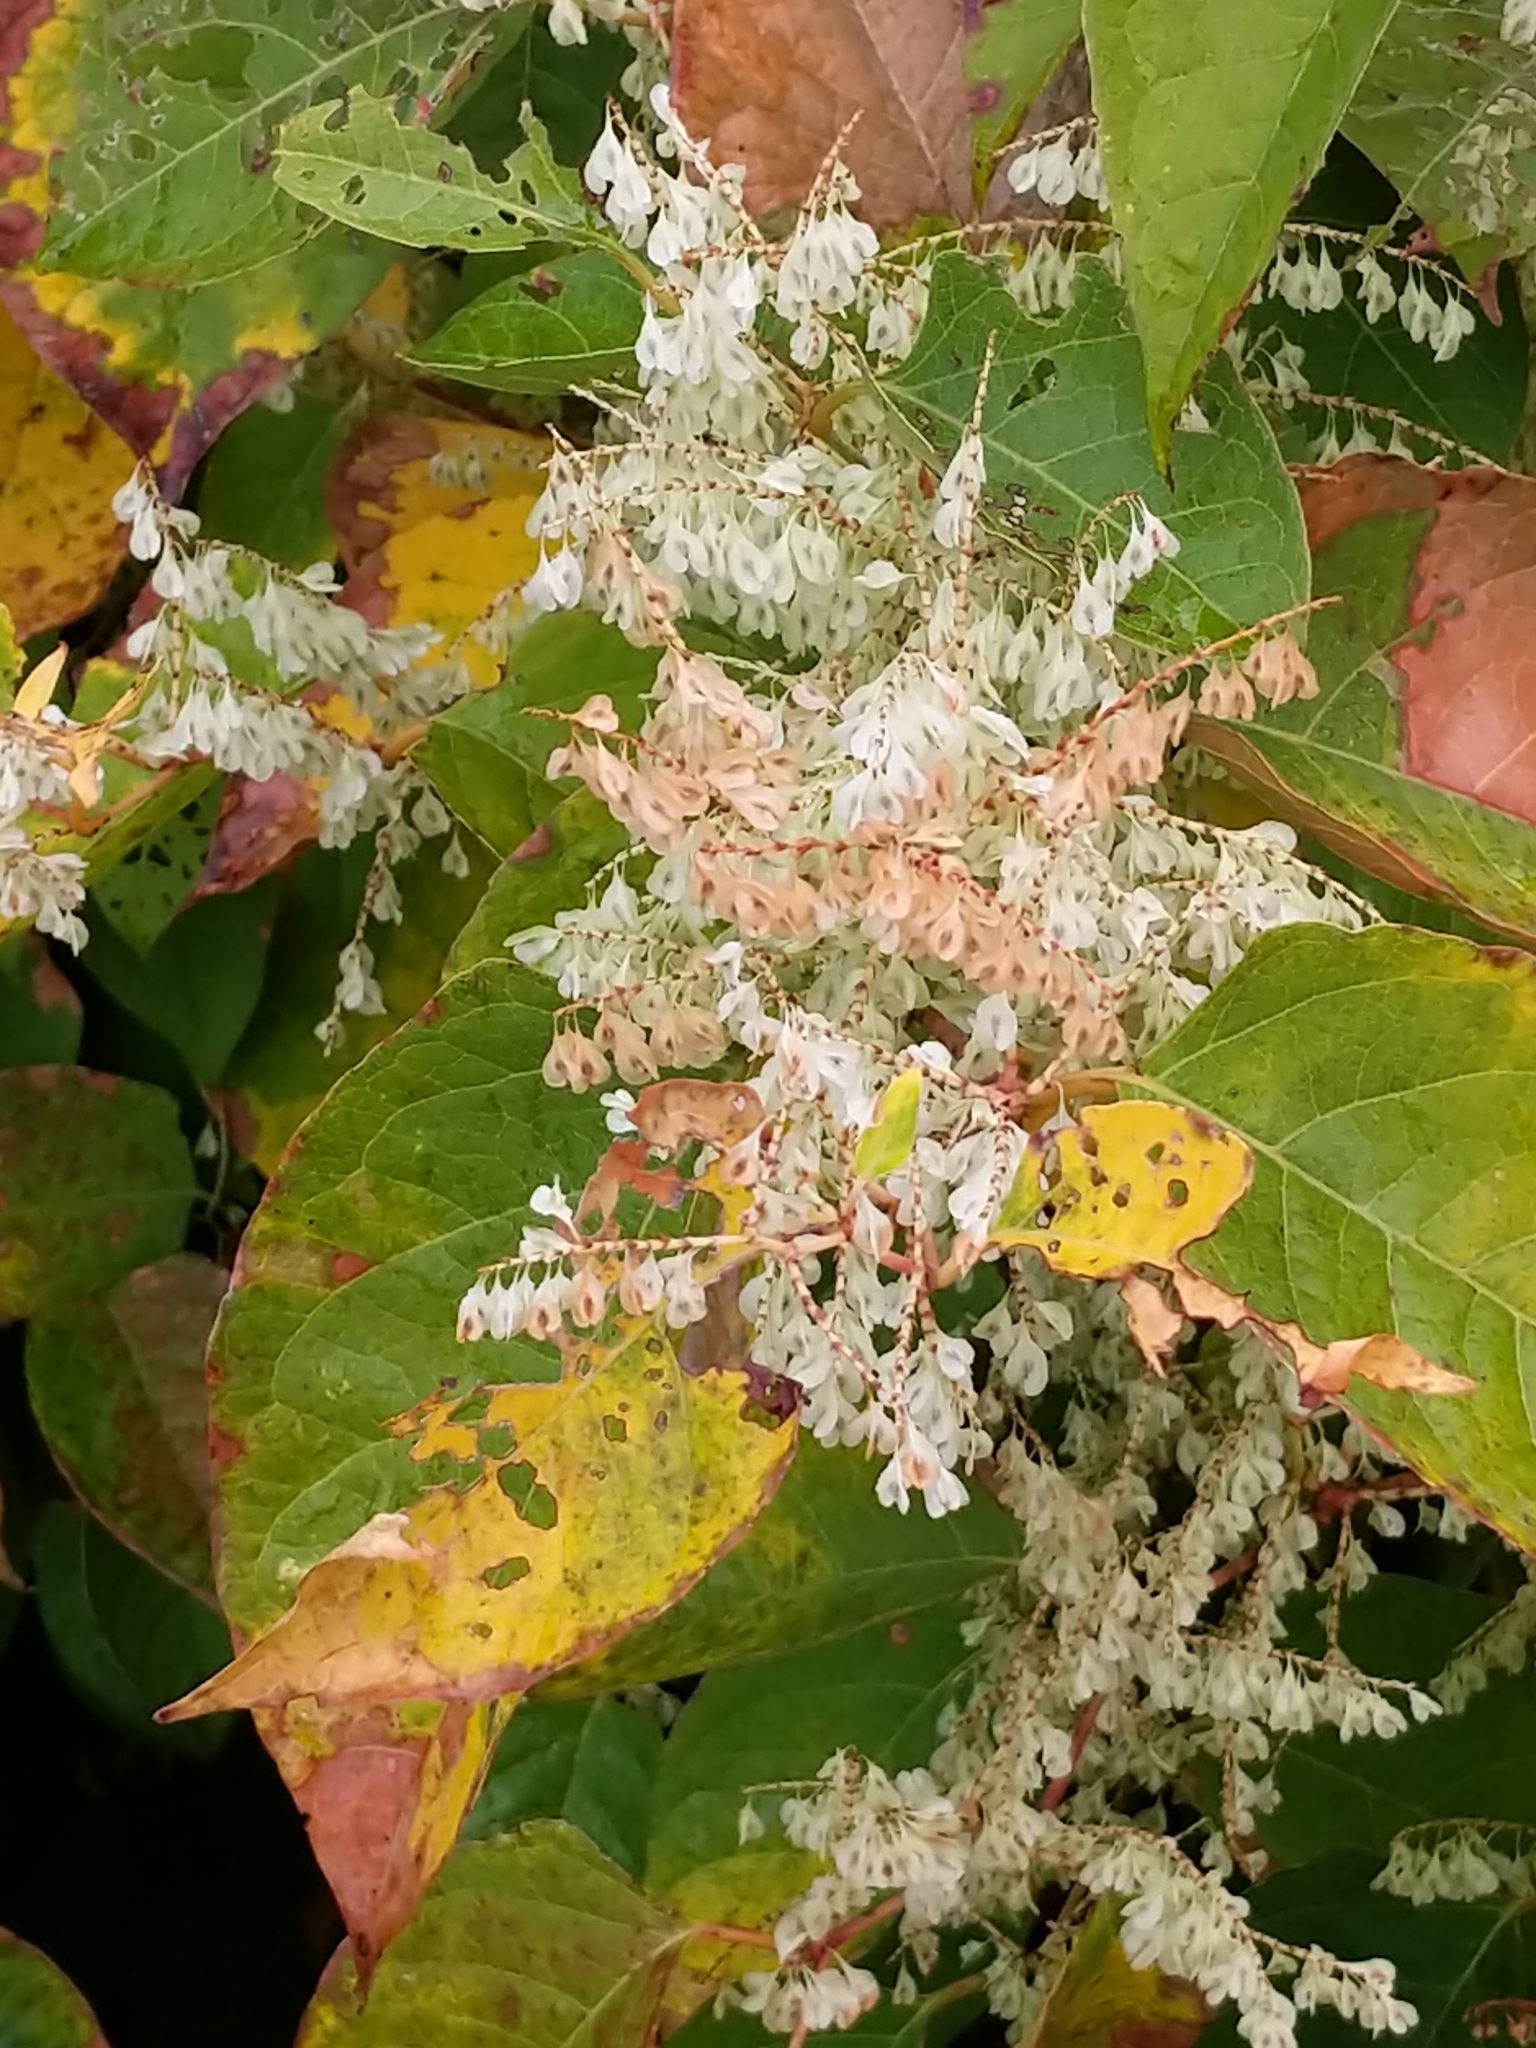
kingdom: Plantae
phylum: Tracheophyta
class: Magnoliopsida
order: Caryophyllales
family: Polygonaceae
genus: Reynoutria
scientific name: Reynoutria japonica
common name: Japanese knotweed
